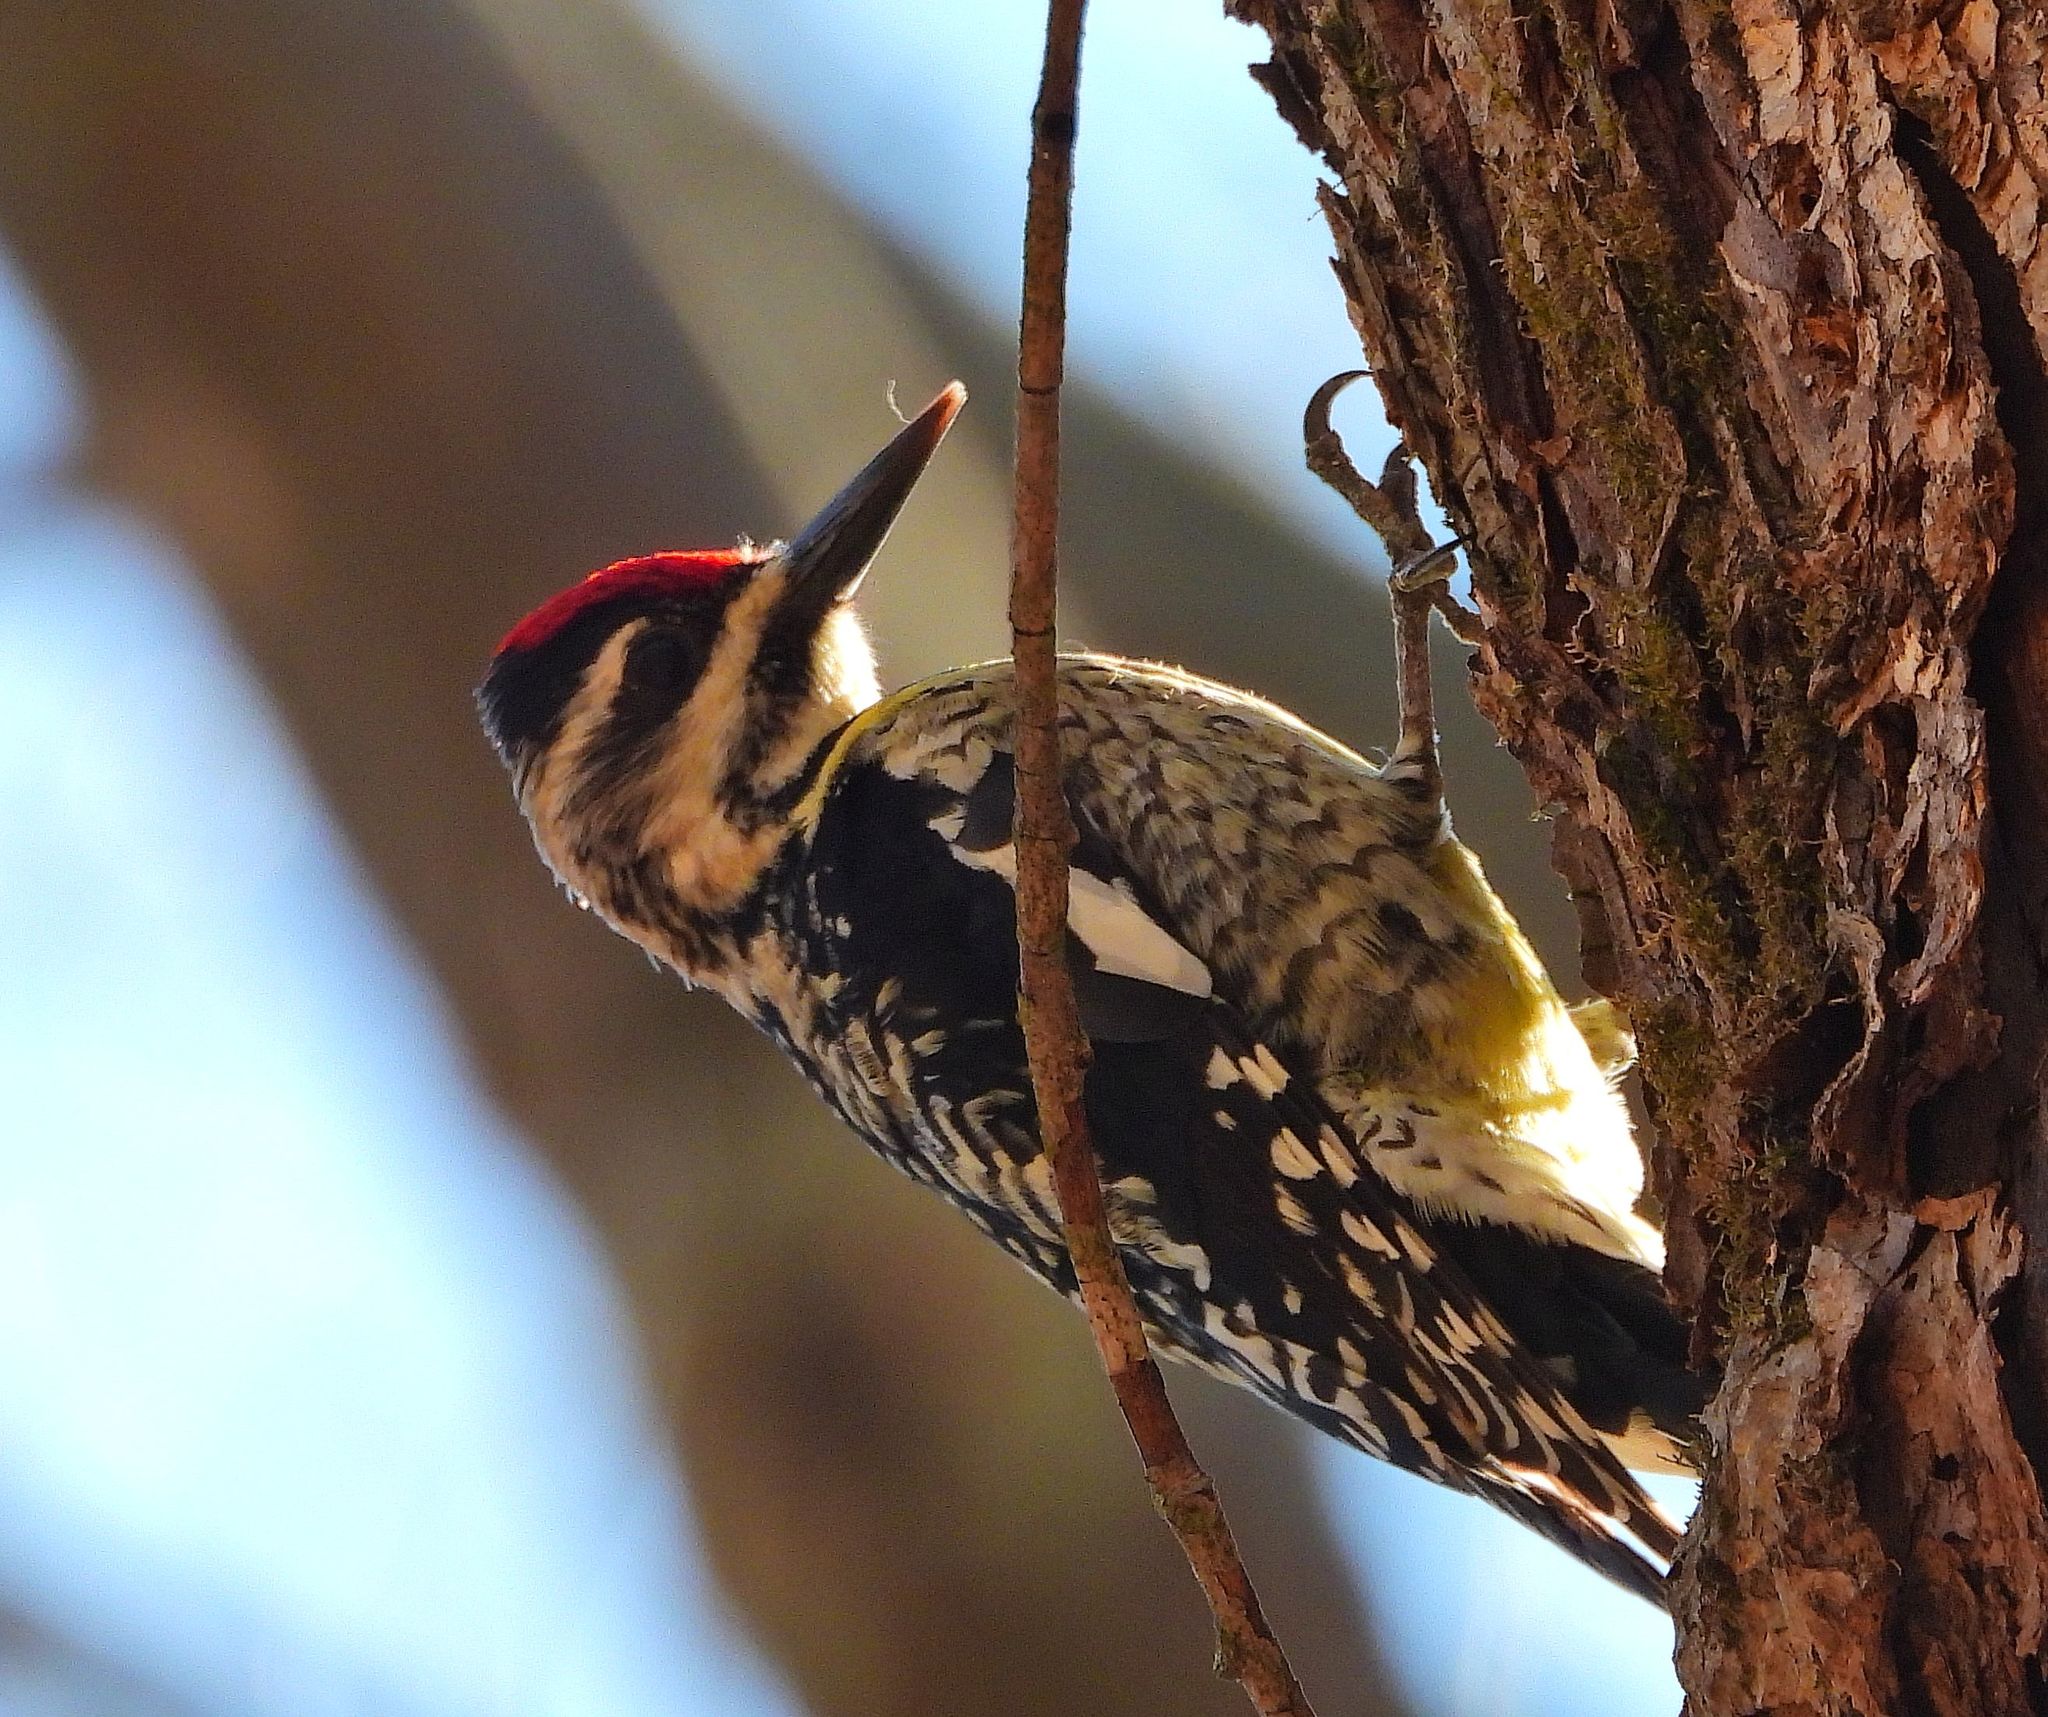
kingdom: Animalia
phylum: Chordata
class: Aves
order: Piciformes
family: Picidae
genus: Sphyrapicus
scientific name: Sphyrapicus varius
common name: Yellow-bellied sapsucker
